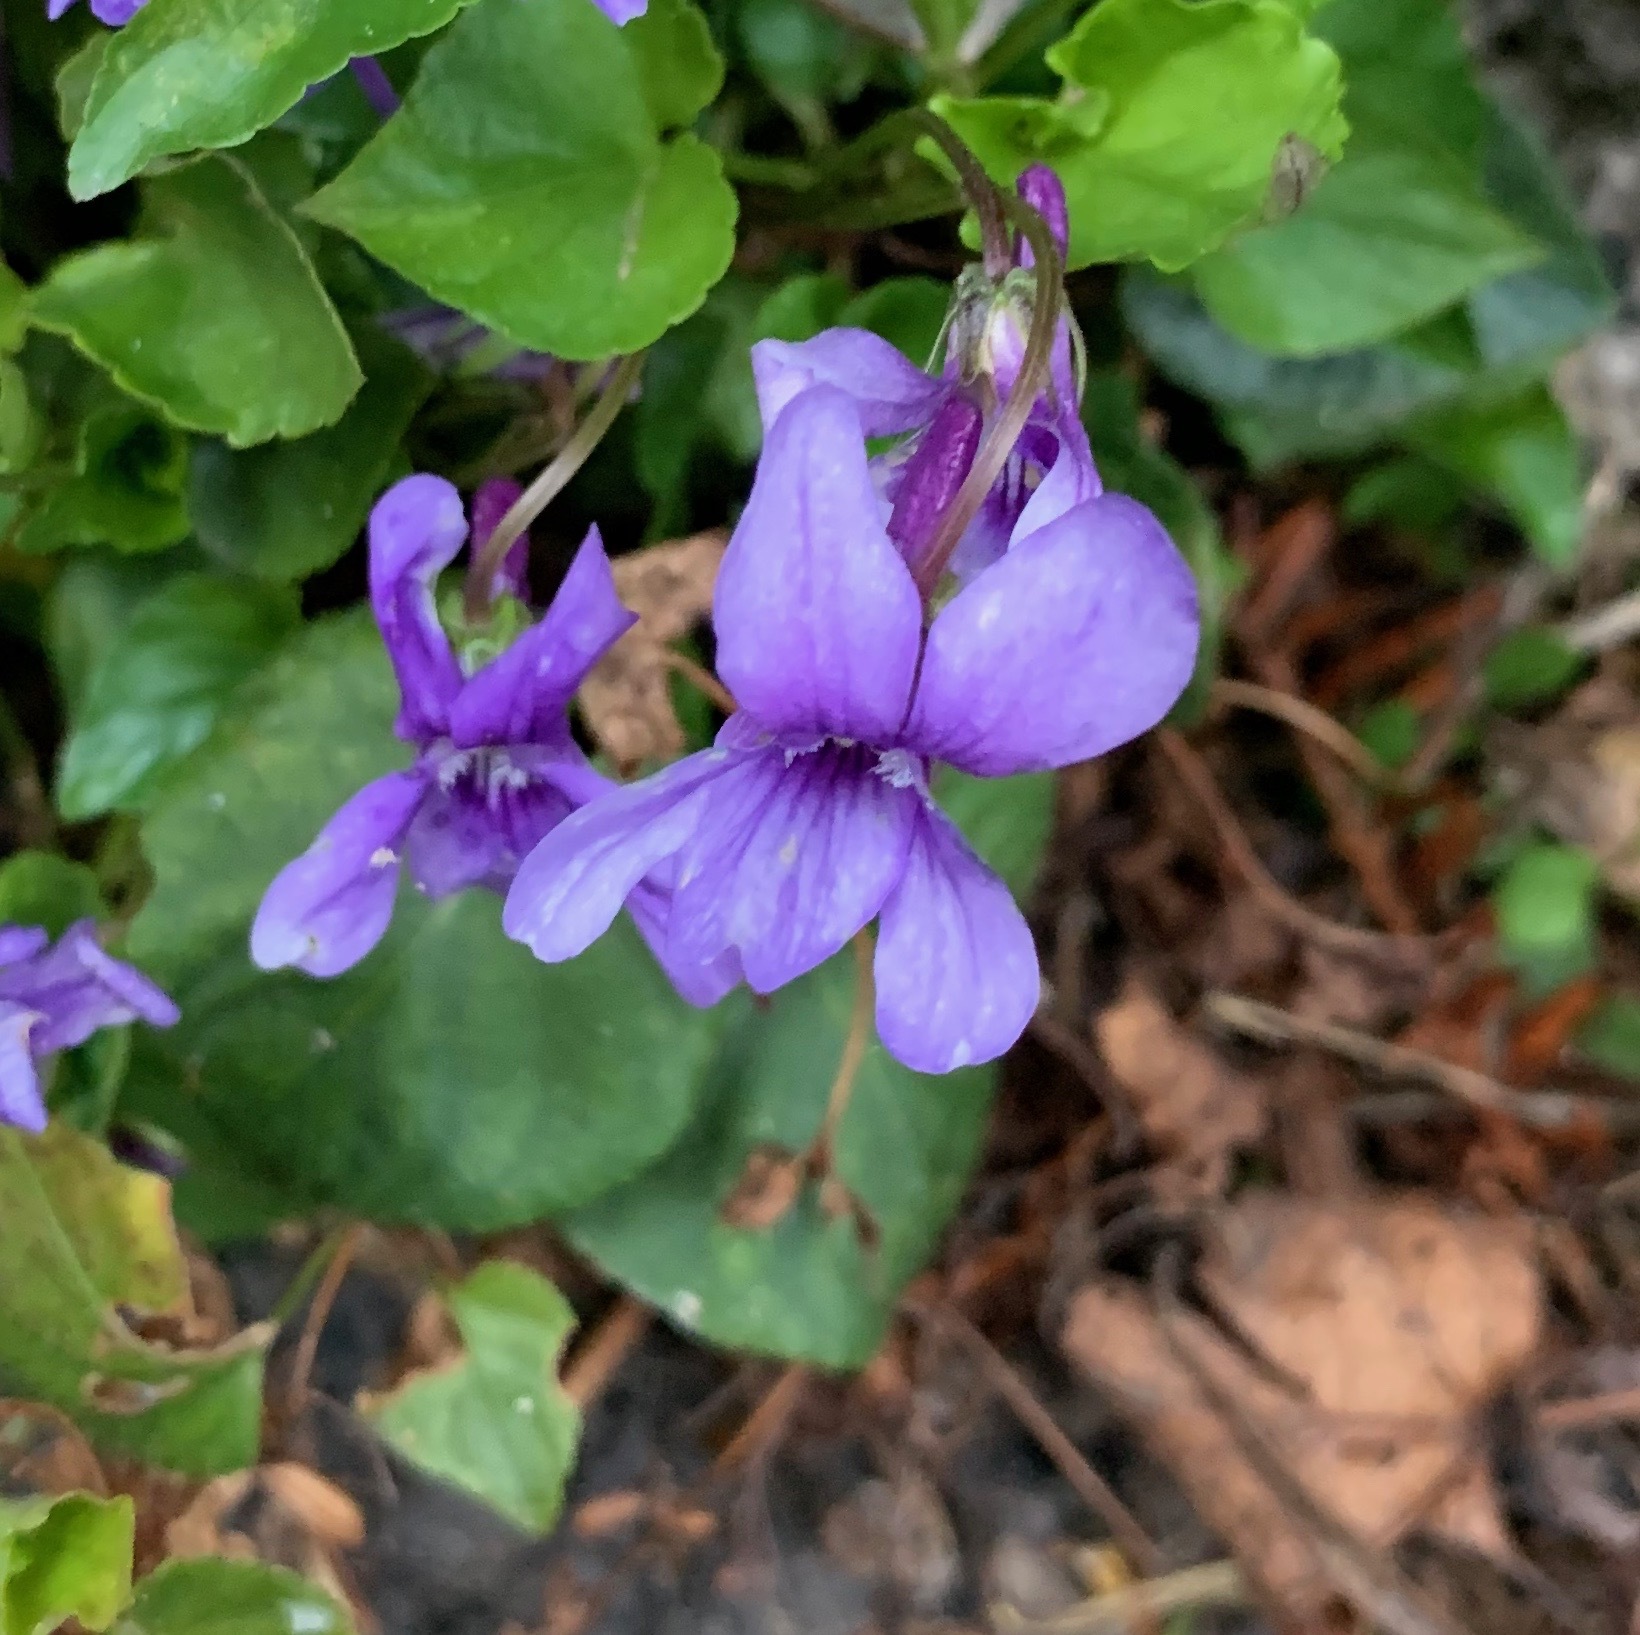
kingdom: Plantae
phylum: Tracheophyta
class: Magnoliopsida
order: Malpighiales
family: Violaceae
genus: Viola
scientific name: Viola reichenbachiana
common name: Early dog-violet
